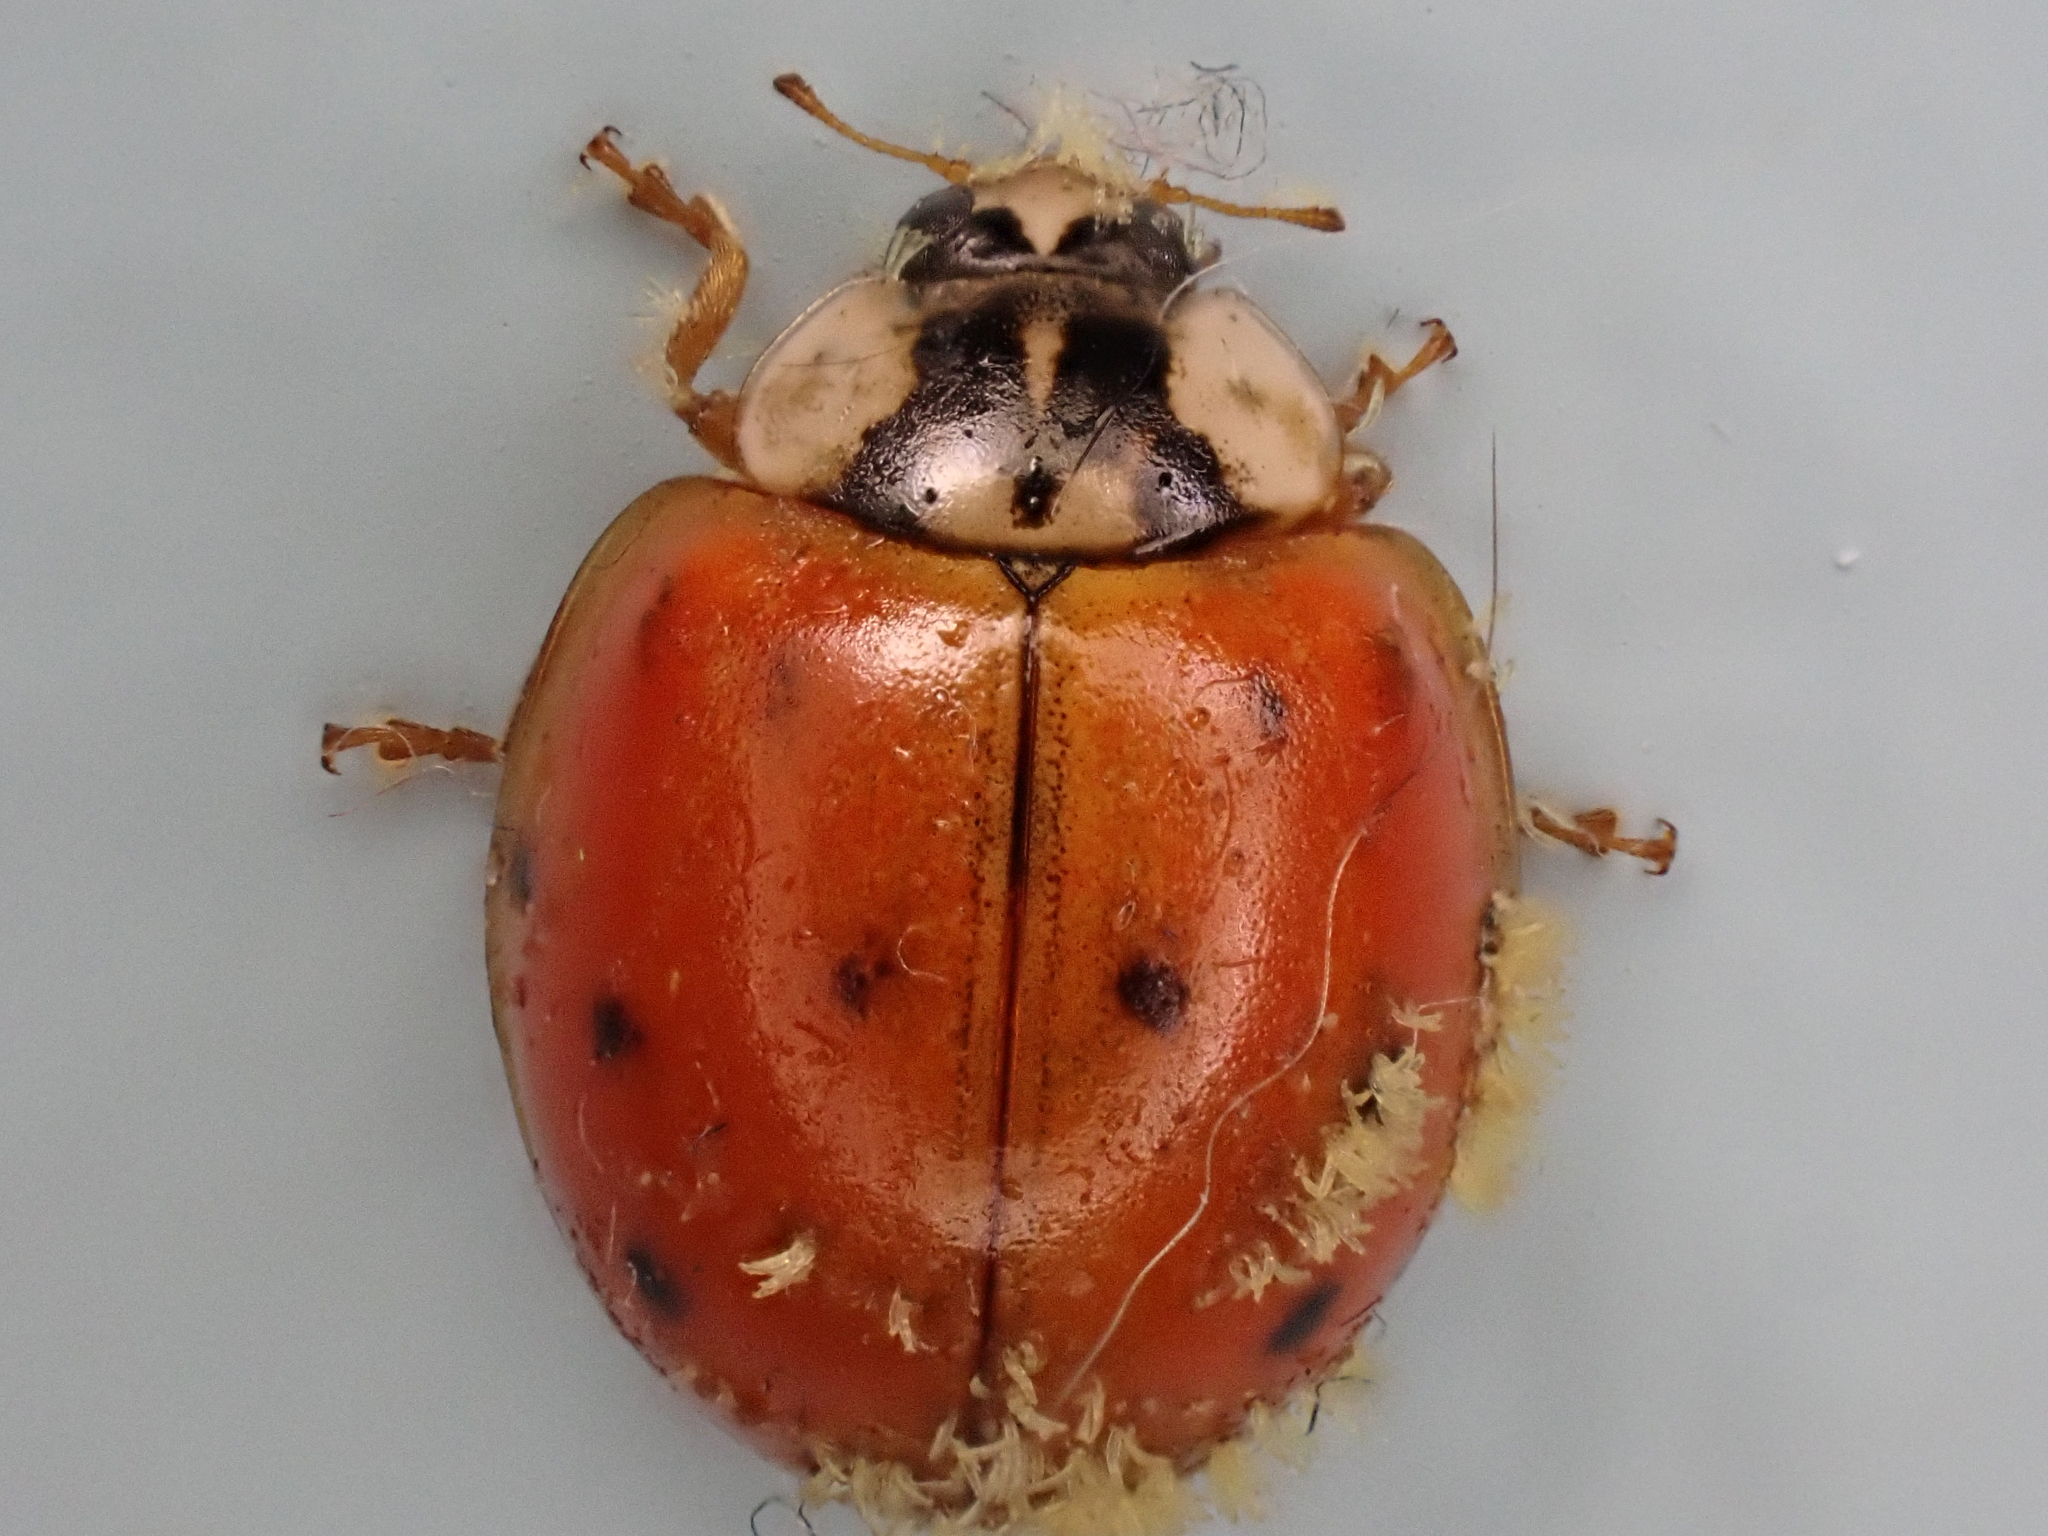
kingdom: Animalia
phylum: Arthropoda
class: Insecta
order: Coleoptera
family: Coccinellidae
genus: Harmonia
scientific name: Harmonia axyridis
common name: Harlequin ladybird
